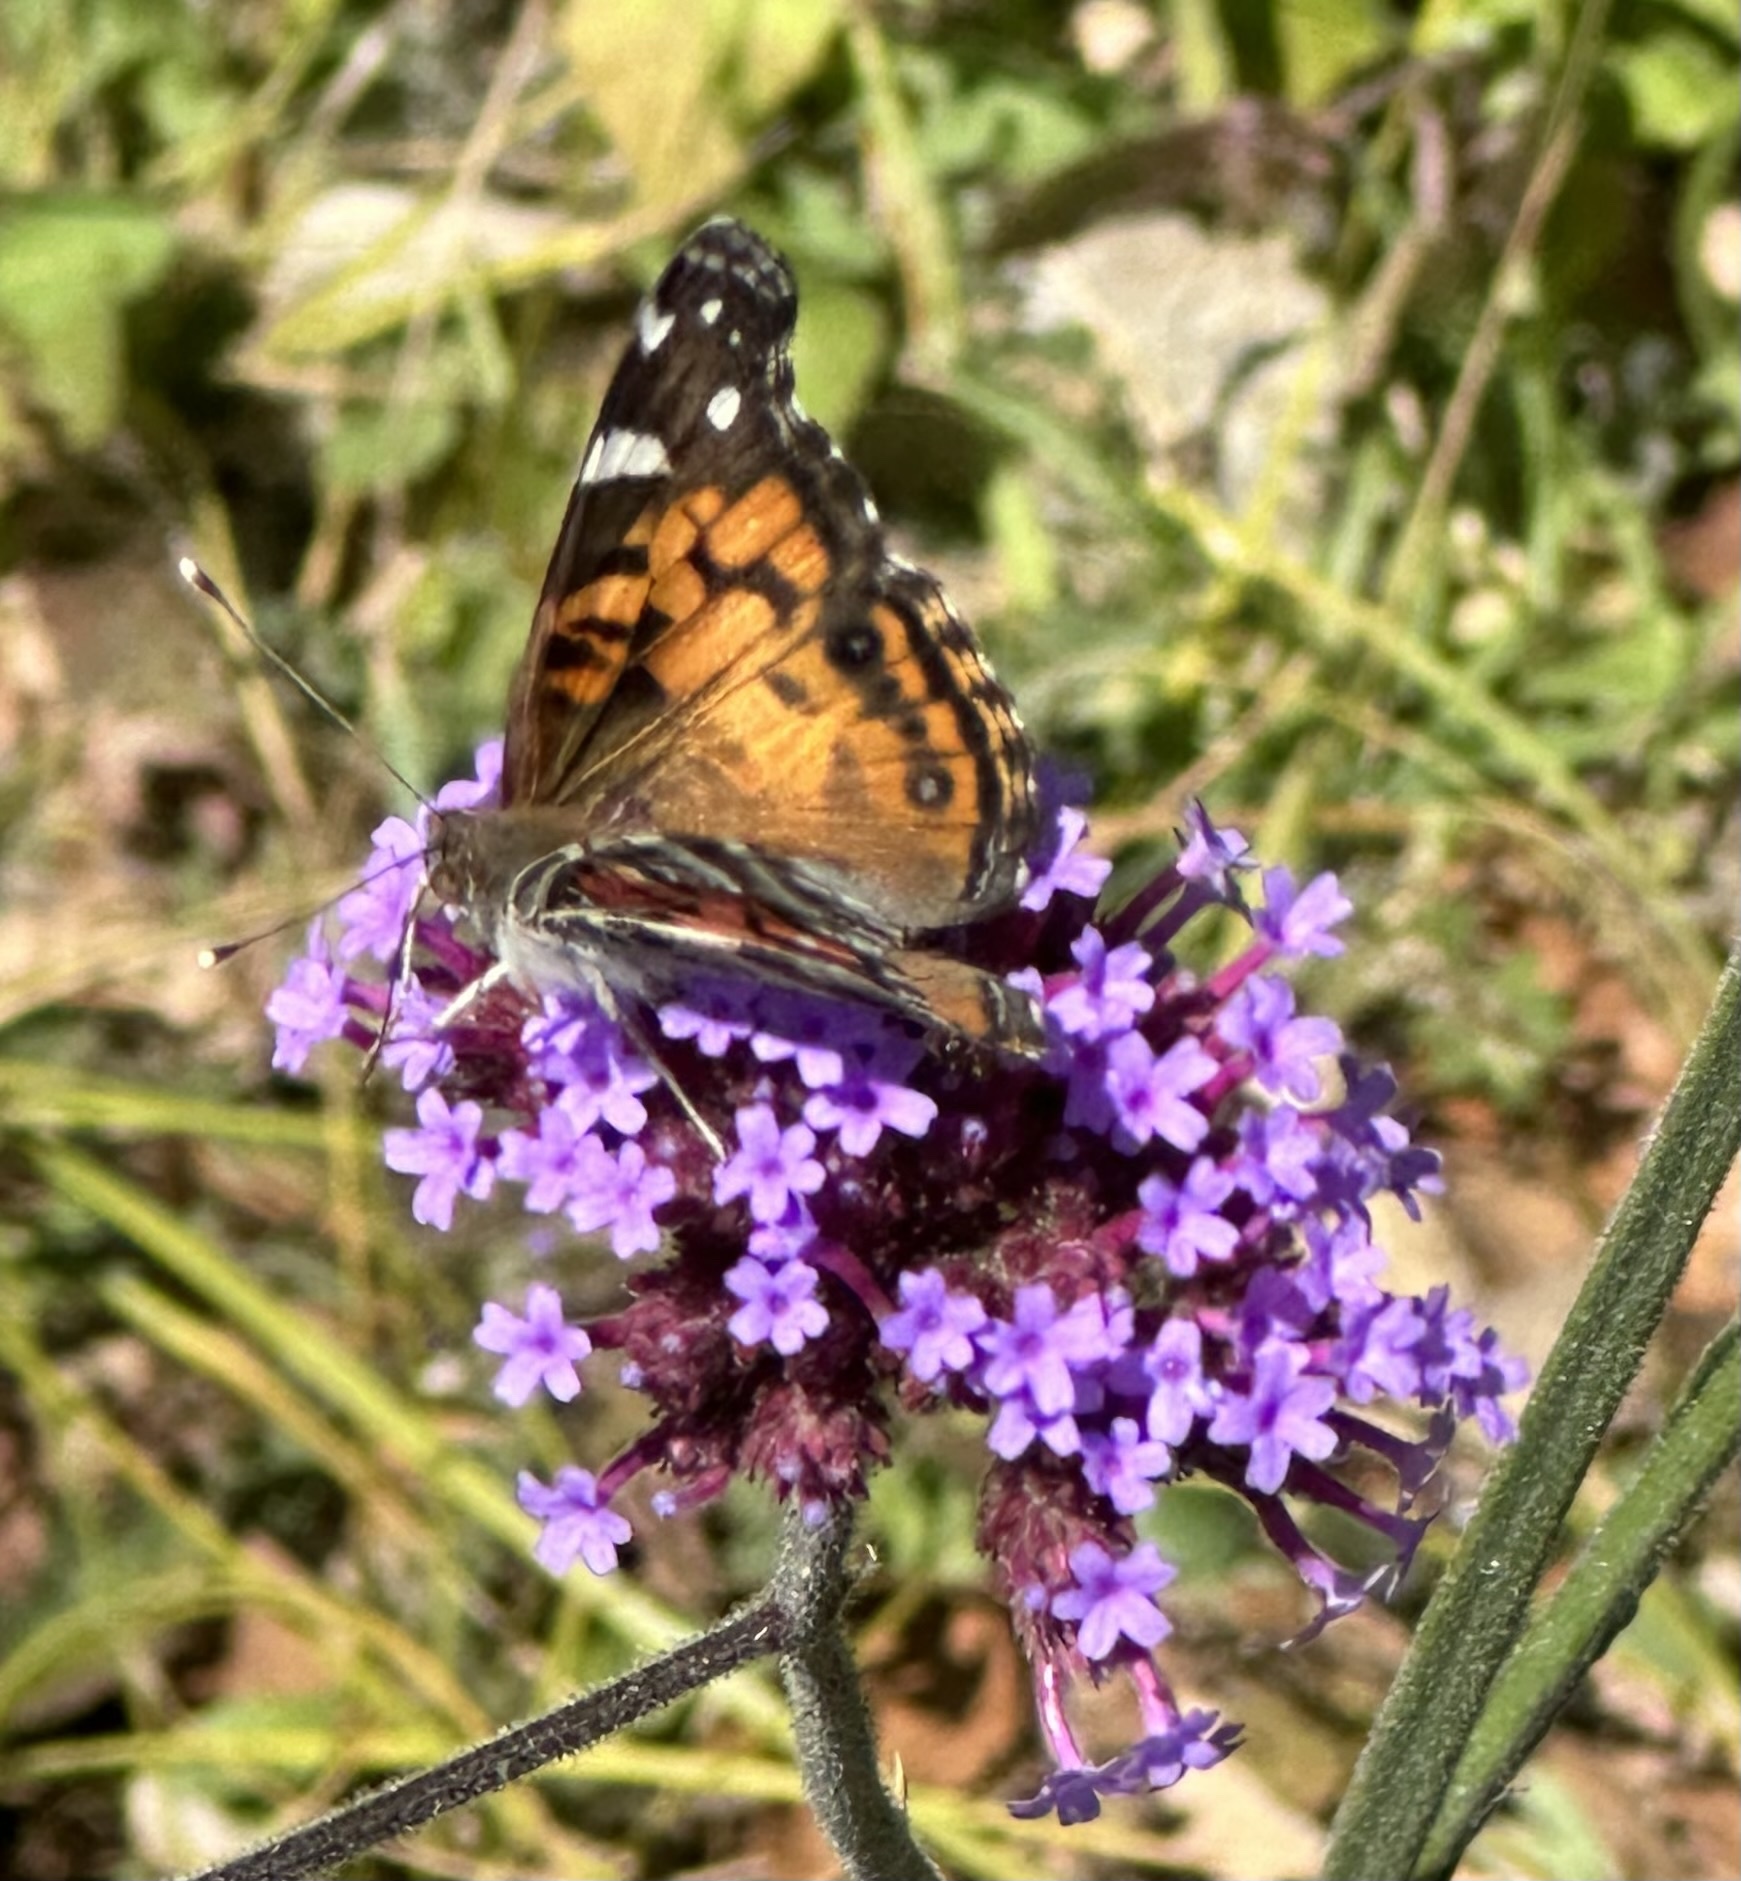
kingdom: Animalia
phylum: Arthropoda
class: Insecta
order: Lepidoptera
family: Nymphalidae
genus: Vanessa
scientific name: Vanessa virginiensis
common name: American lady
